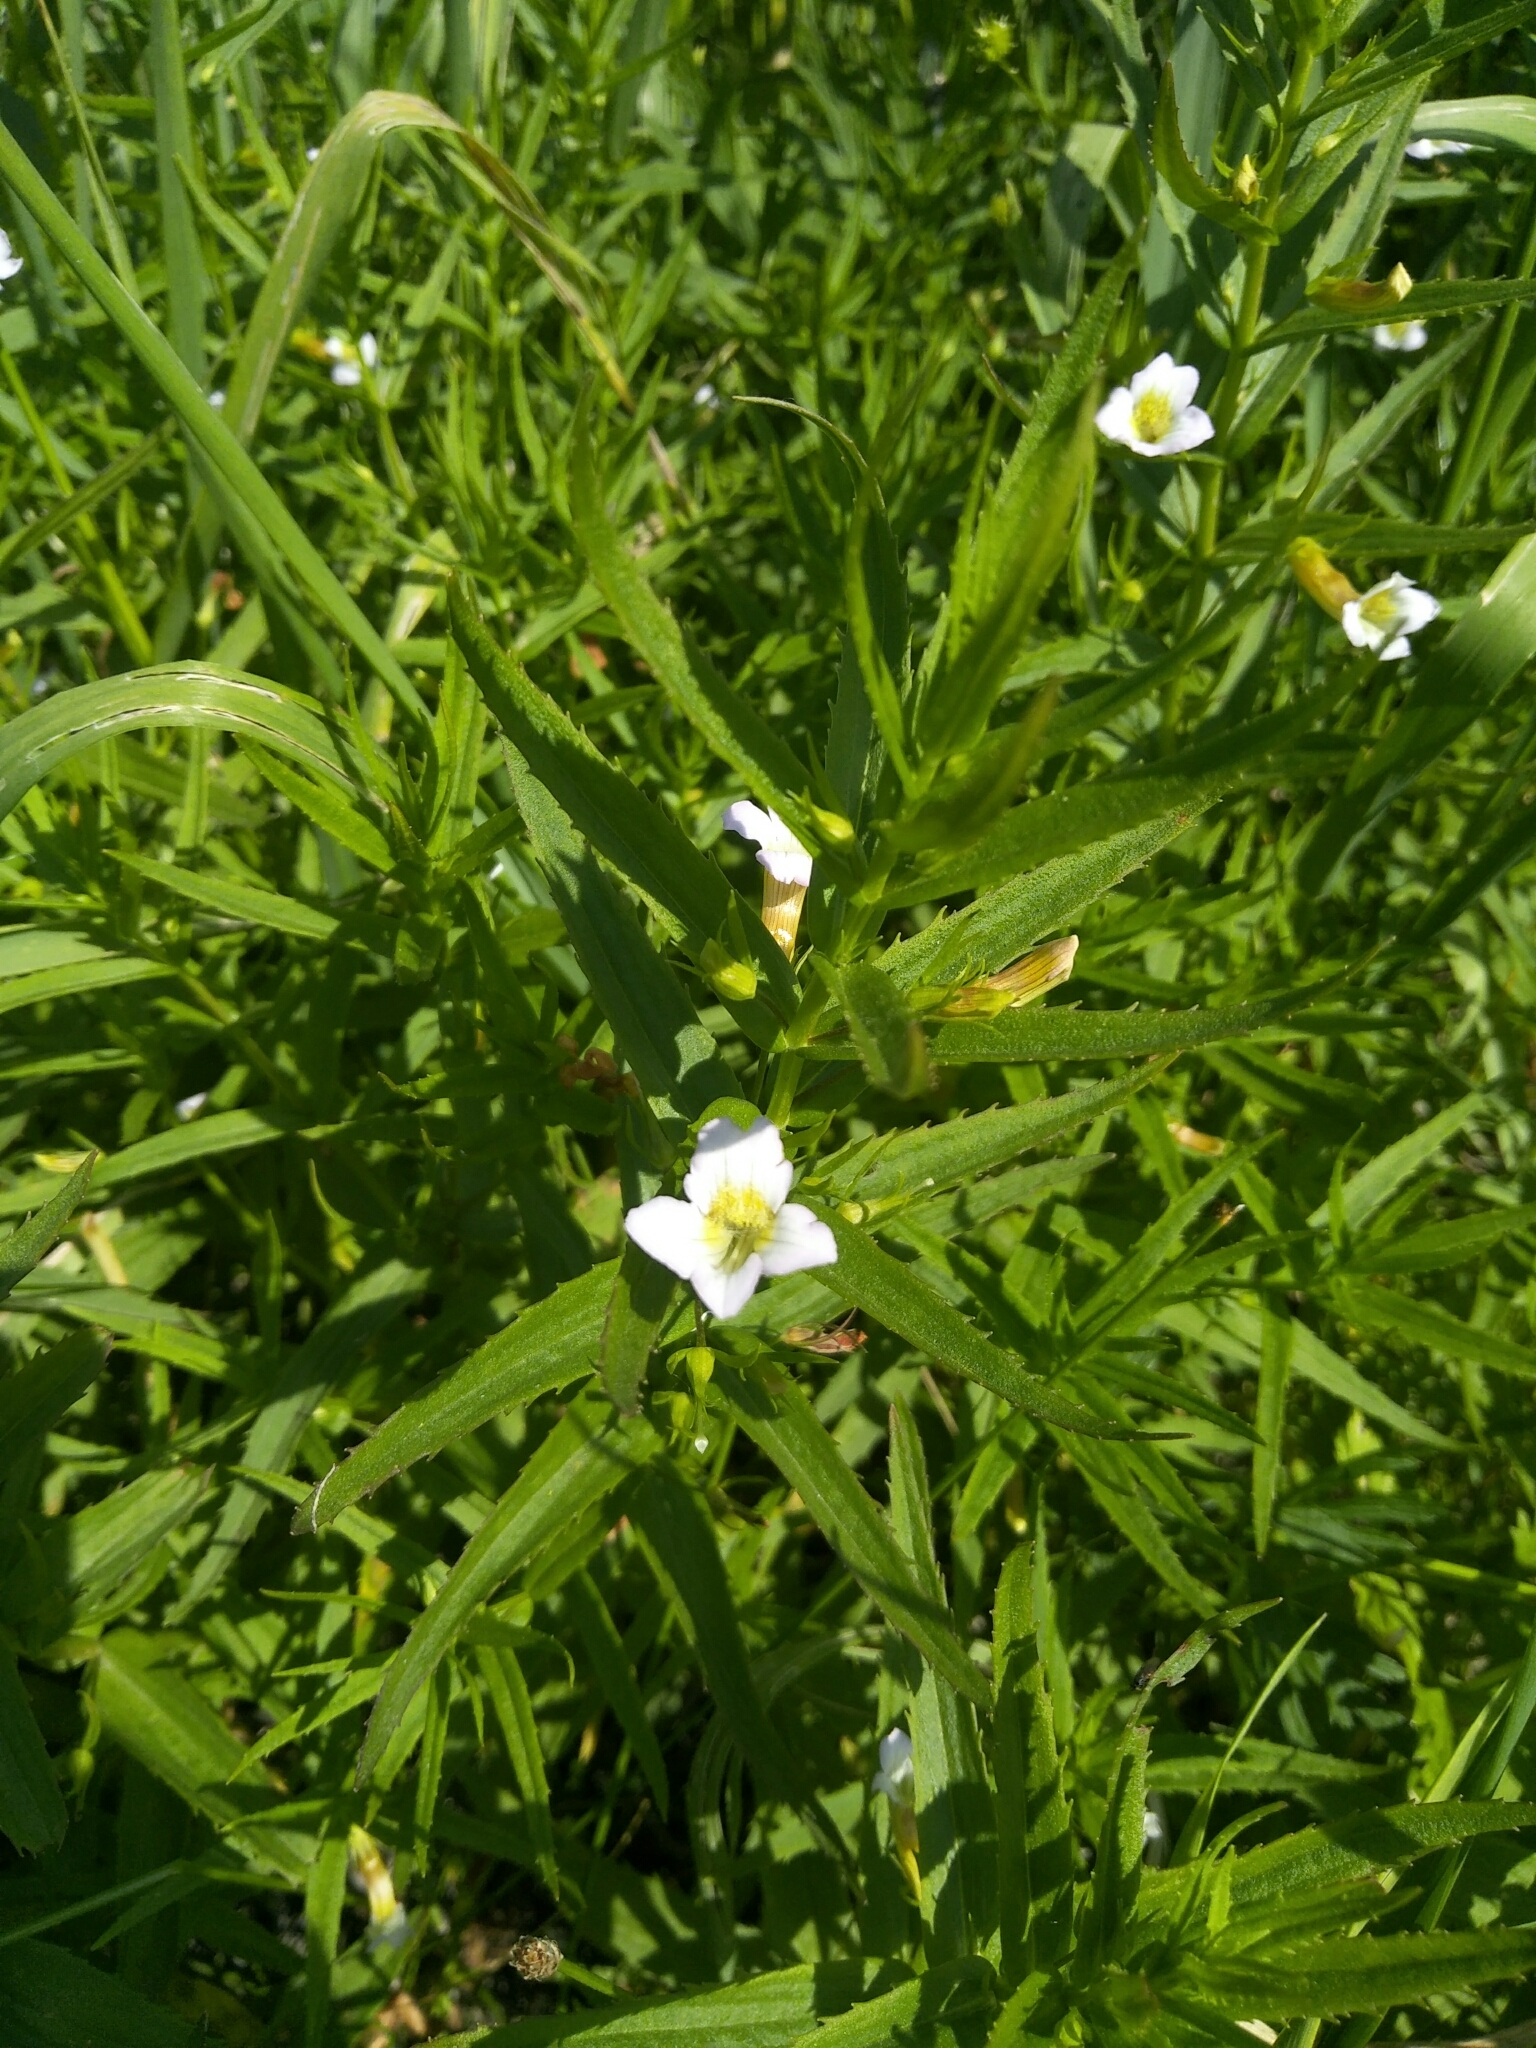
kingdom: Plantae
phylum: Tracheophyta
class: Magnoliopsida
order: Lamiales
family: Plantaginaceae
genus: Gratiola
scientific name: Gratiola officinalis
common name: Gratiola
